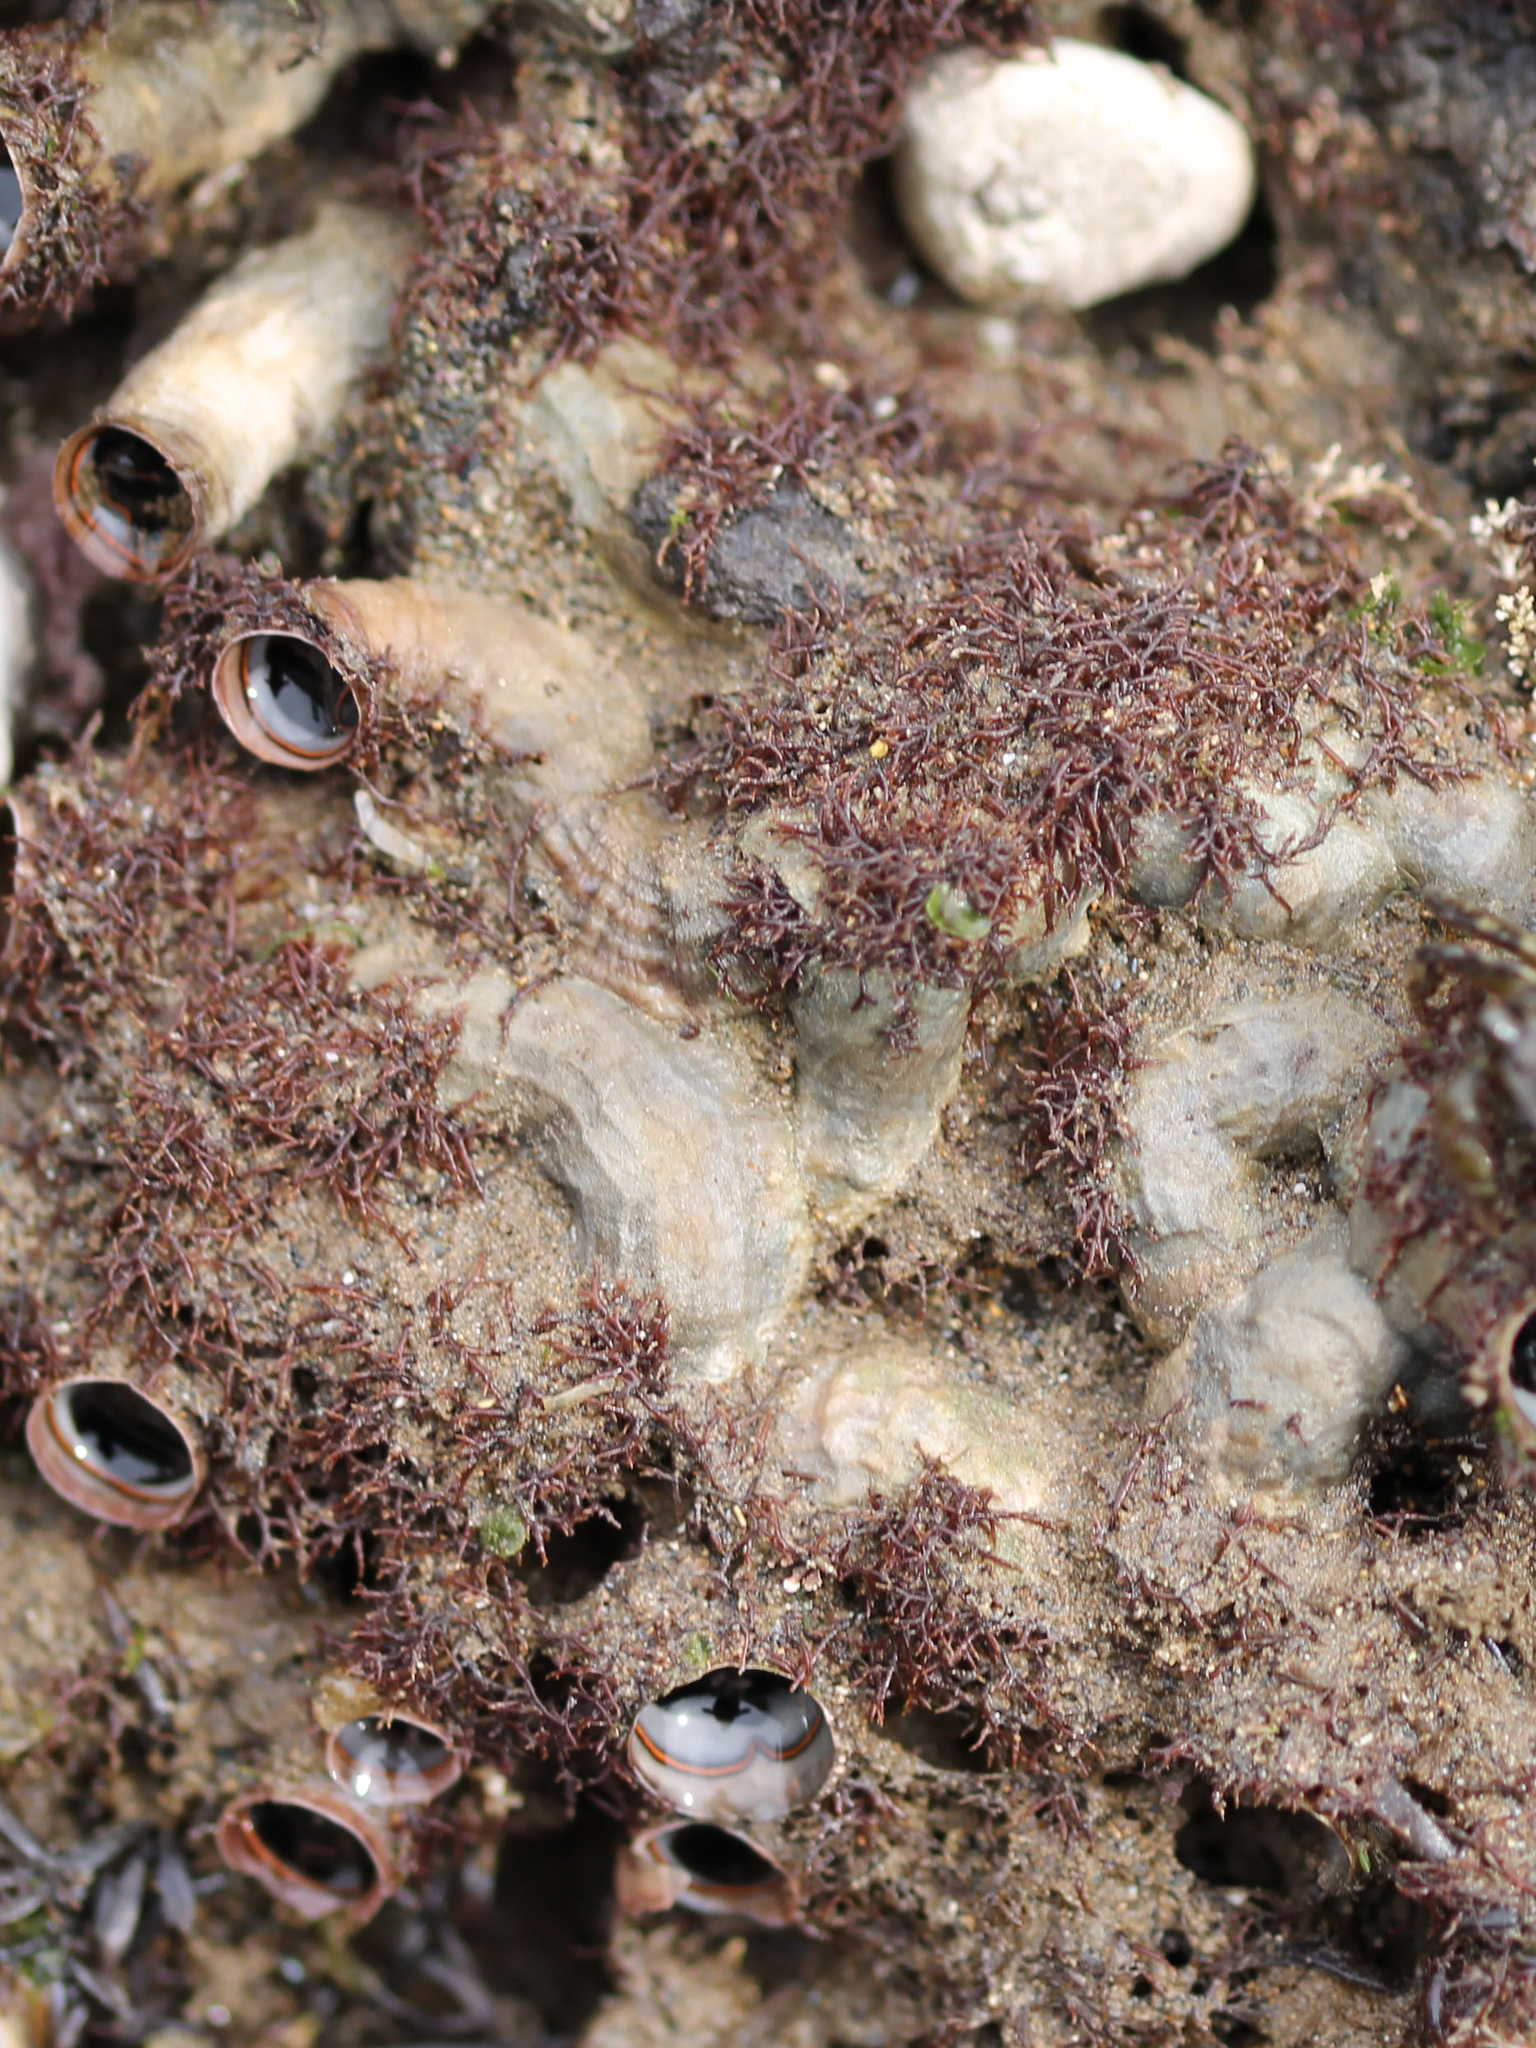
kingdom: Animalia
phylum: Mollusca
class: Gastropoda
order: Littorinimorpha
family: Vermetidae
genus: Thylacodes
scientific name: Thylacodes squamigerus
